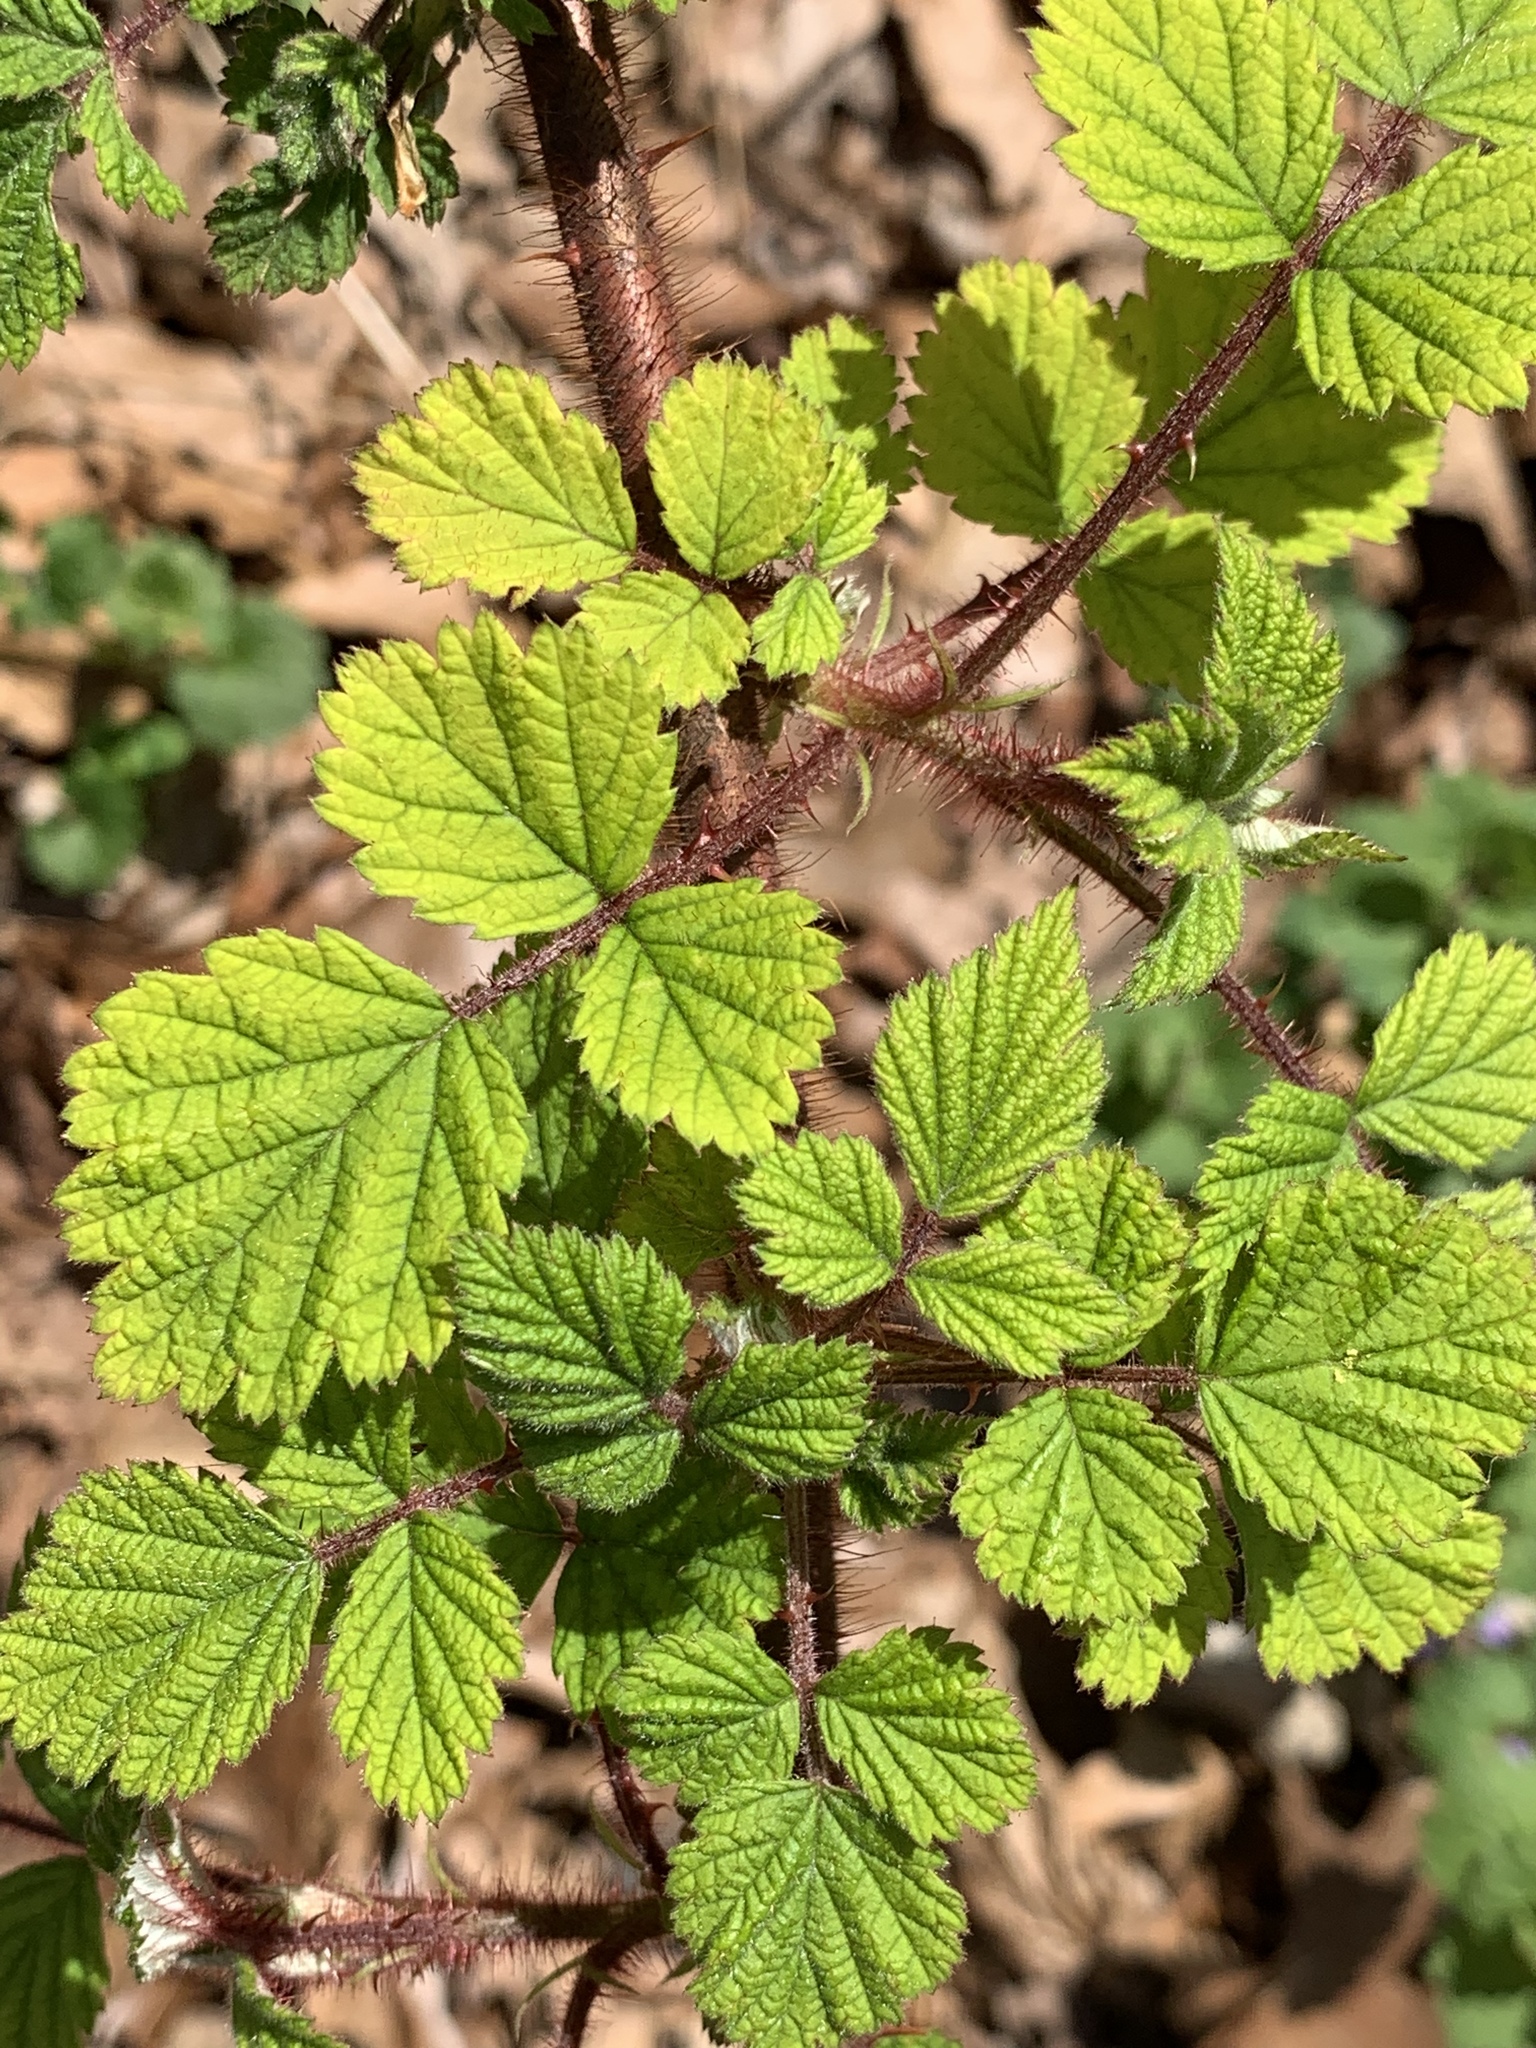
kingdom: Plantae
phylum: Tracheophyta
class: Magnoliopsida
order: Rosales
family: Rosaceae
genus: Rubus
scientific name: Rubus phoenicolasius
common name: Japanese wineberry
